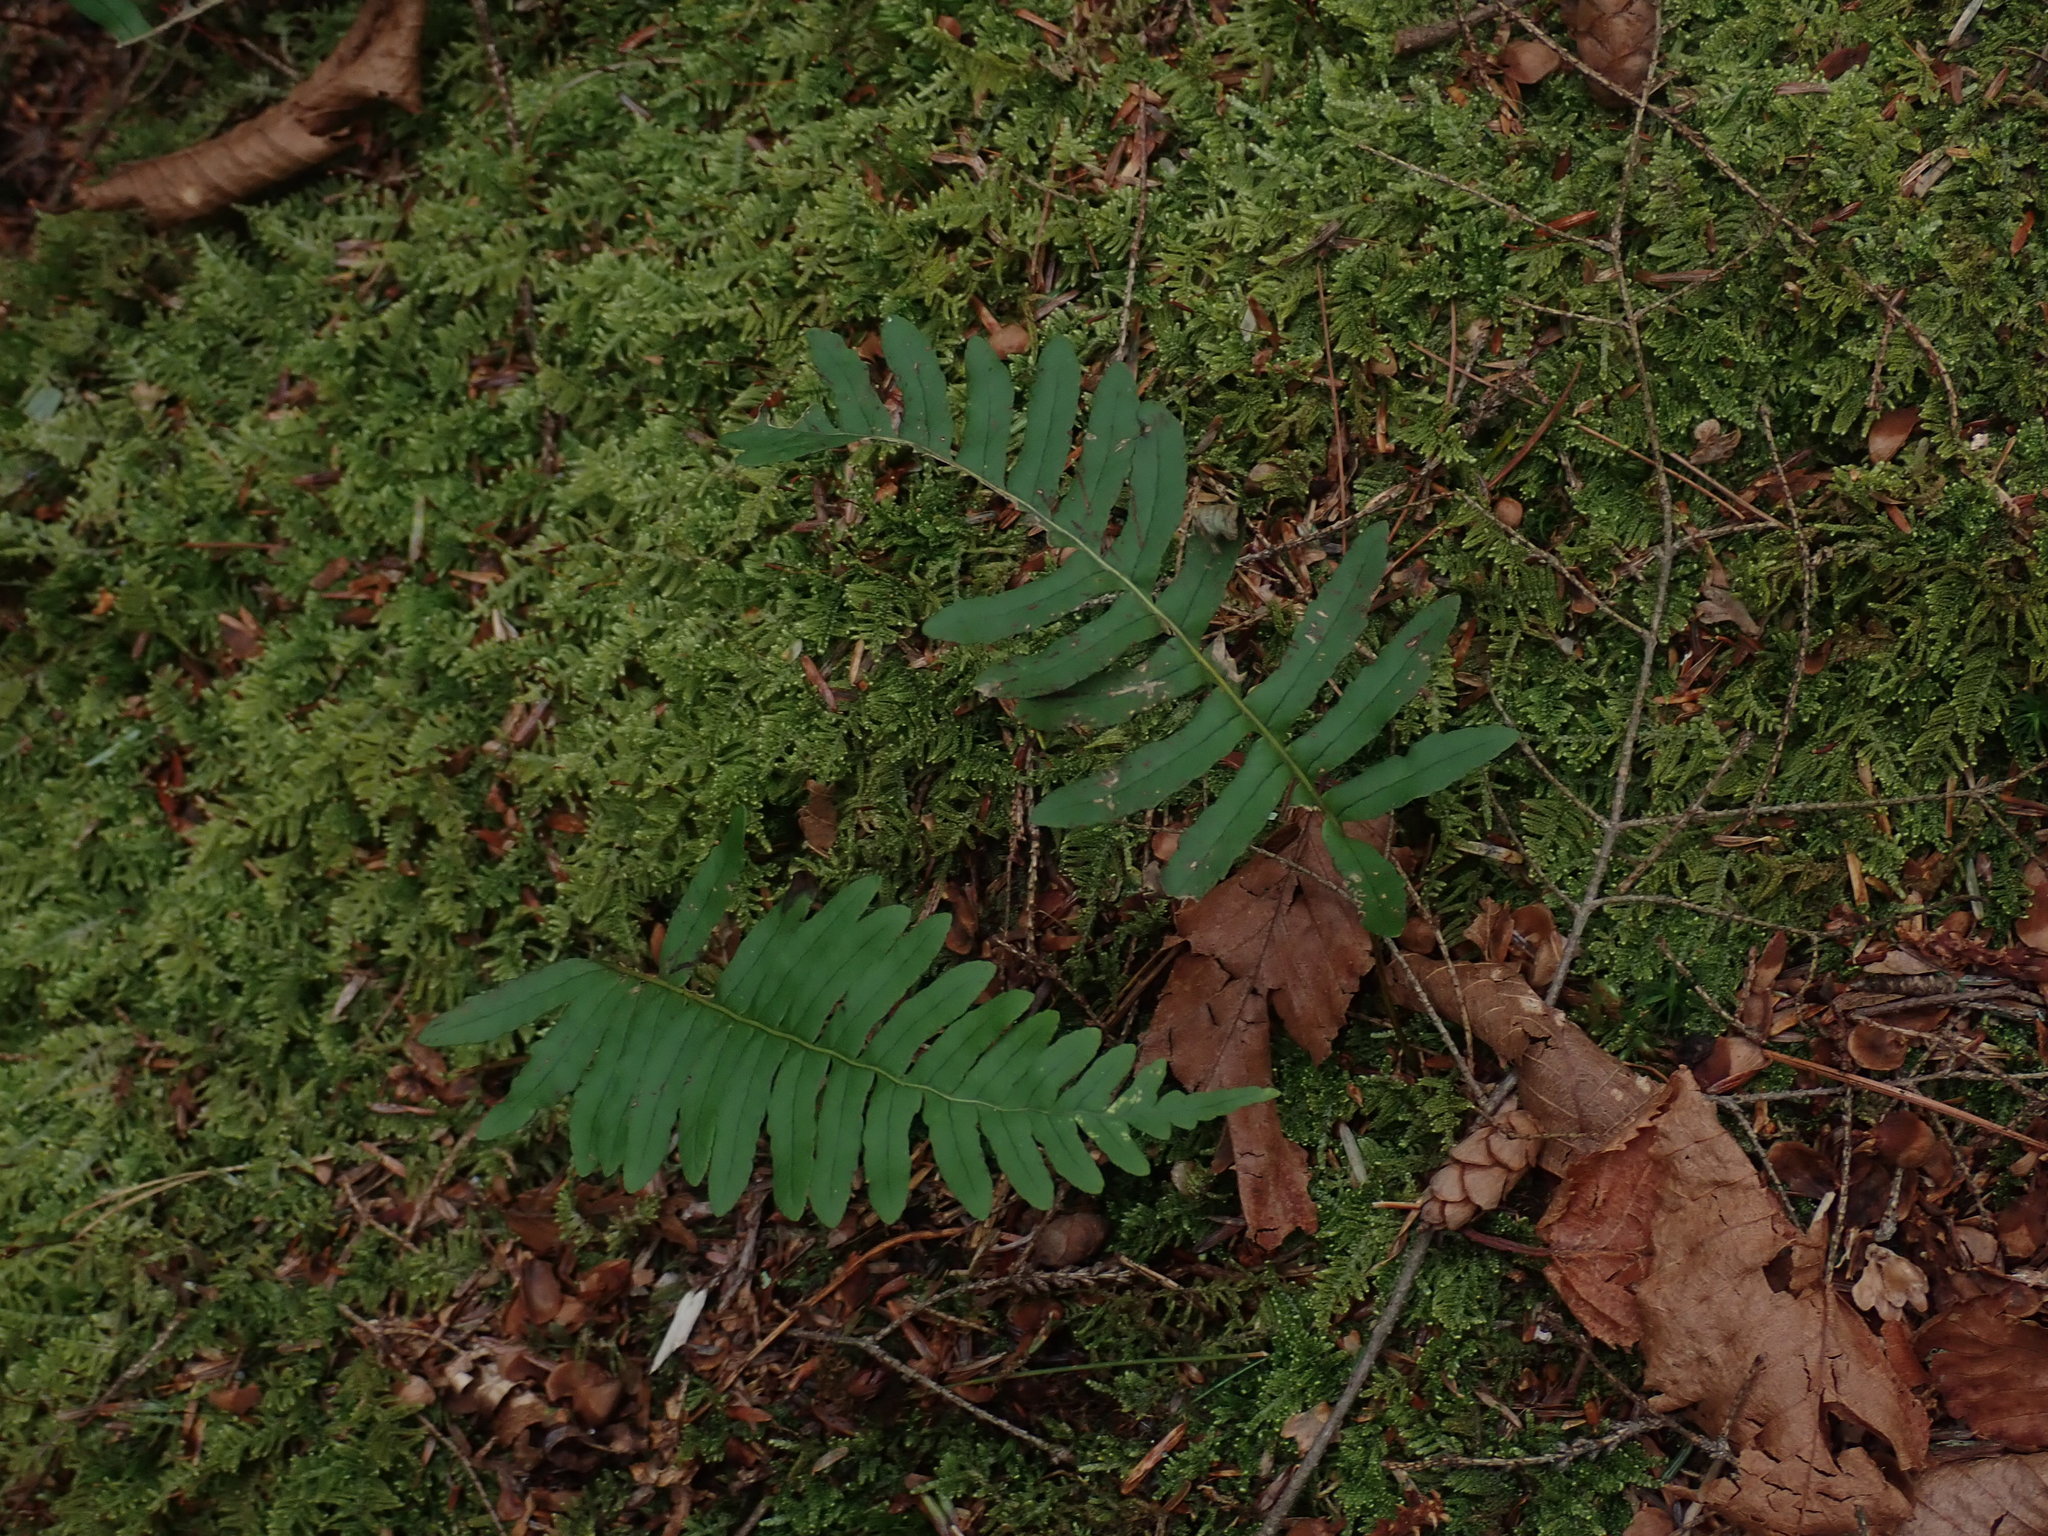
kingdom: Plantae
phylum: Tracheophyta
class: Polypodiopsida
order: Polypodiales
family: Polypodiaceae
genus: Polypodium
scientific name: Polypodium
